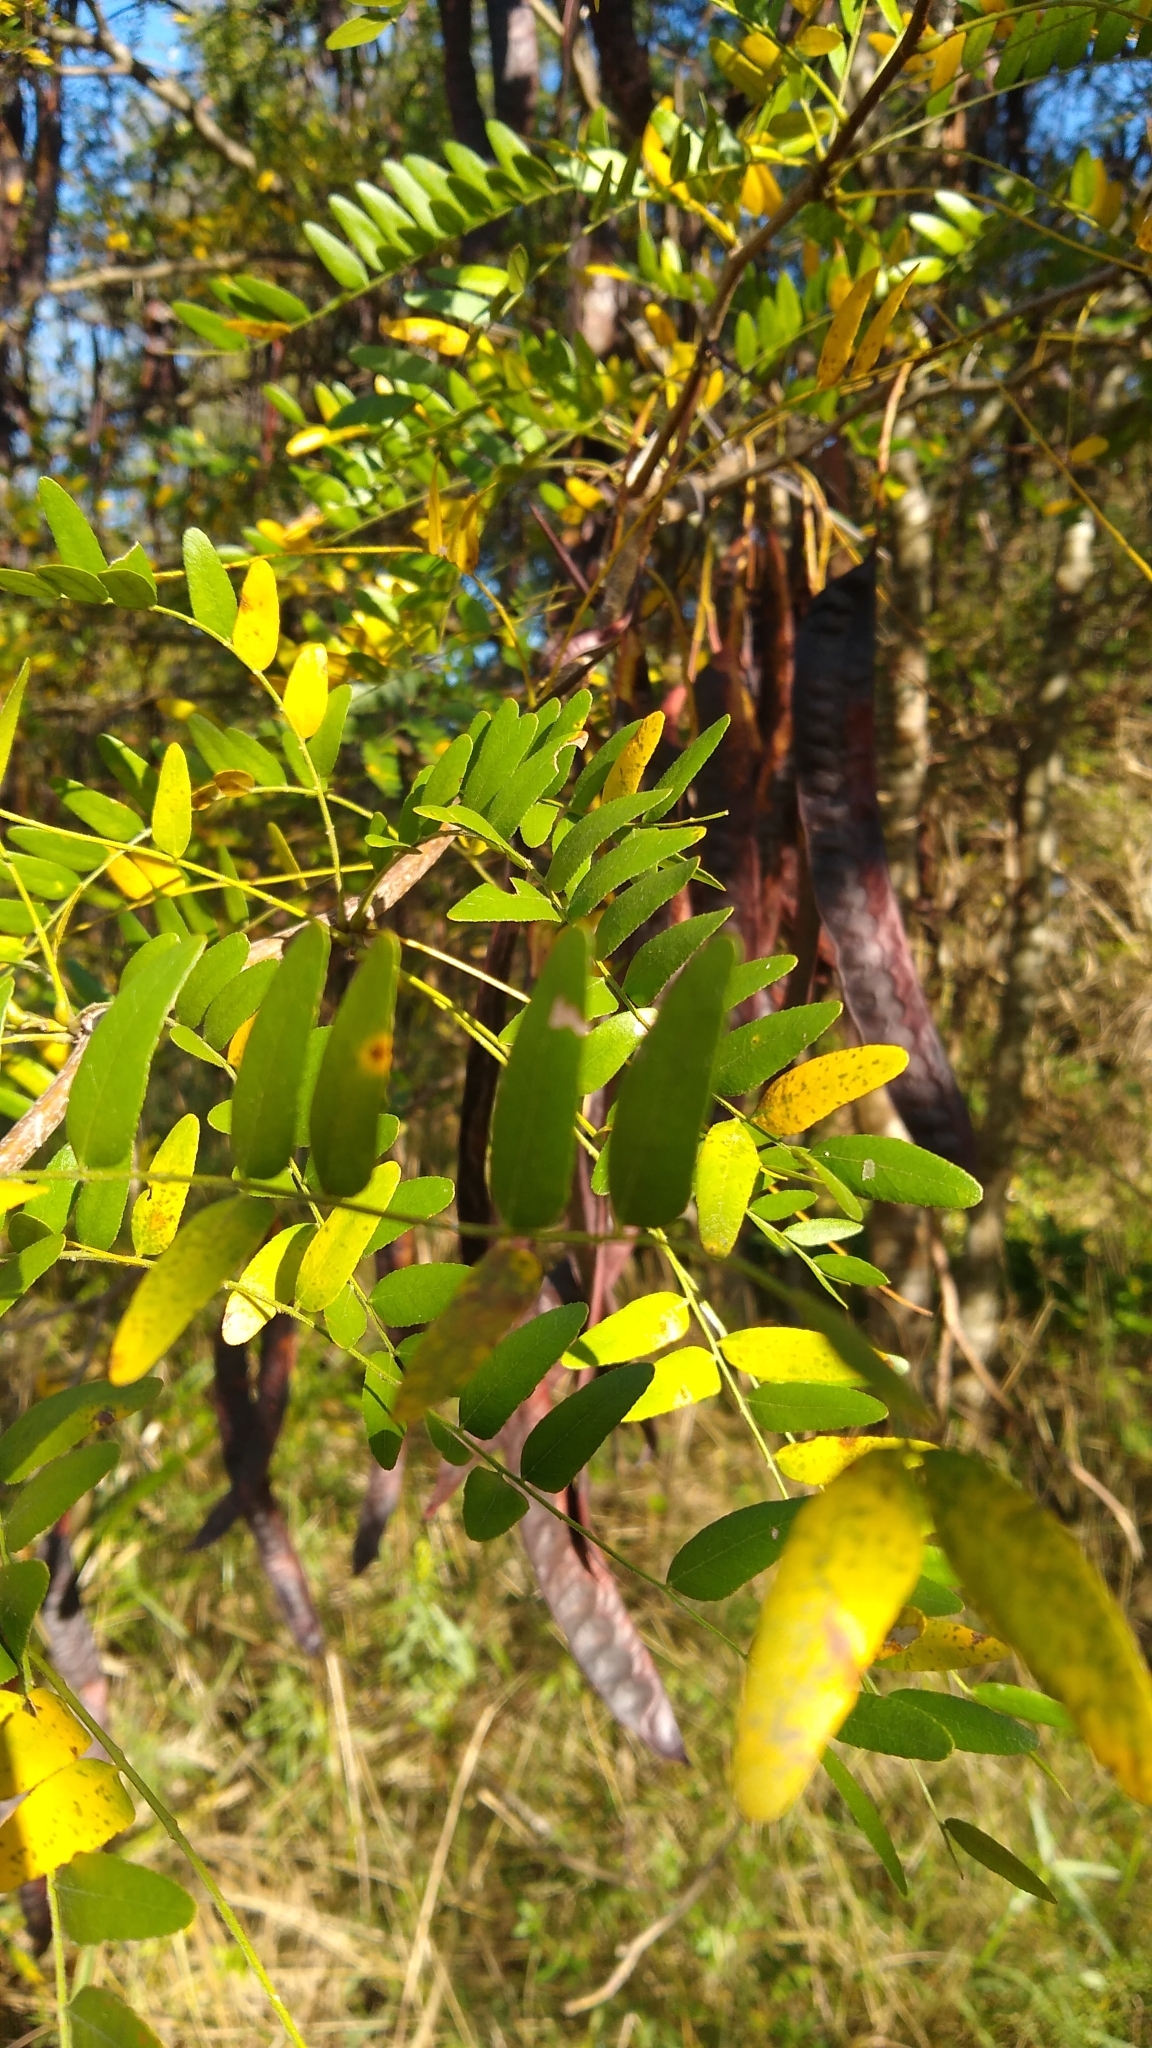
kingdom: Plantae
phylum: Tracheophyta
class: Magnoliopsida
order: Fabales
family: Fabaceae
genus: Gleditsia
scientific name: Gleditsia triacanthos
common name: Common honeylocust
